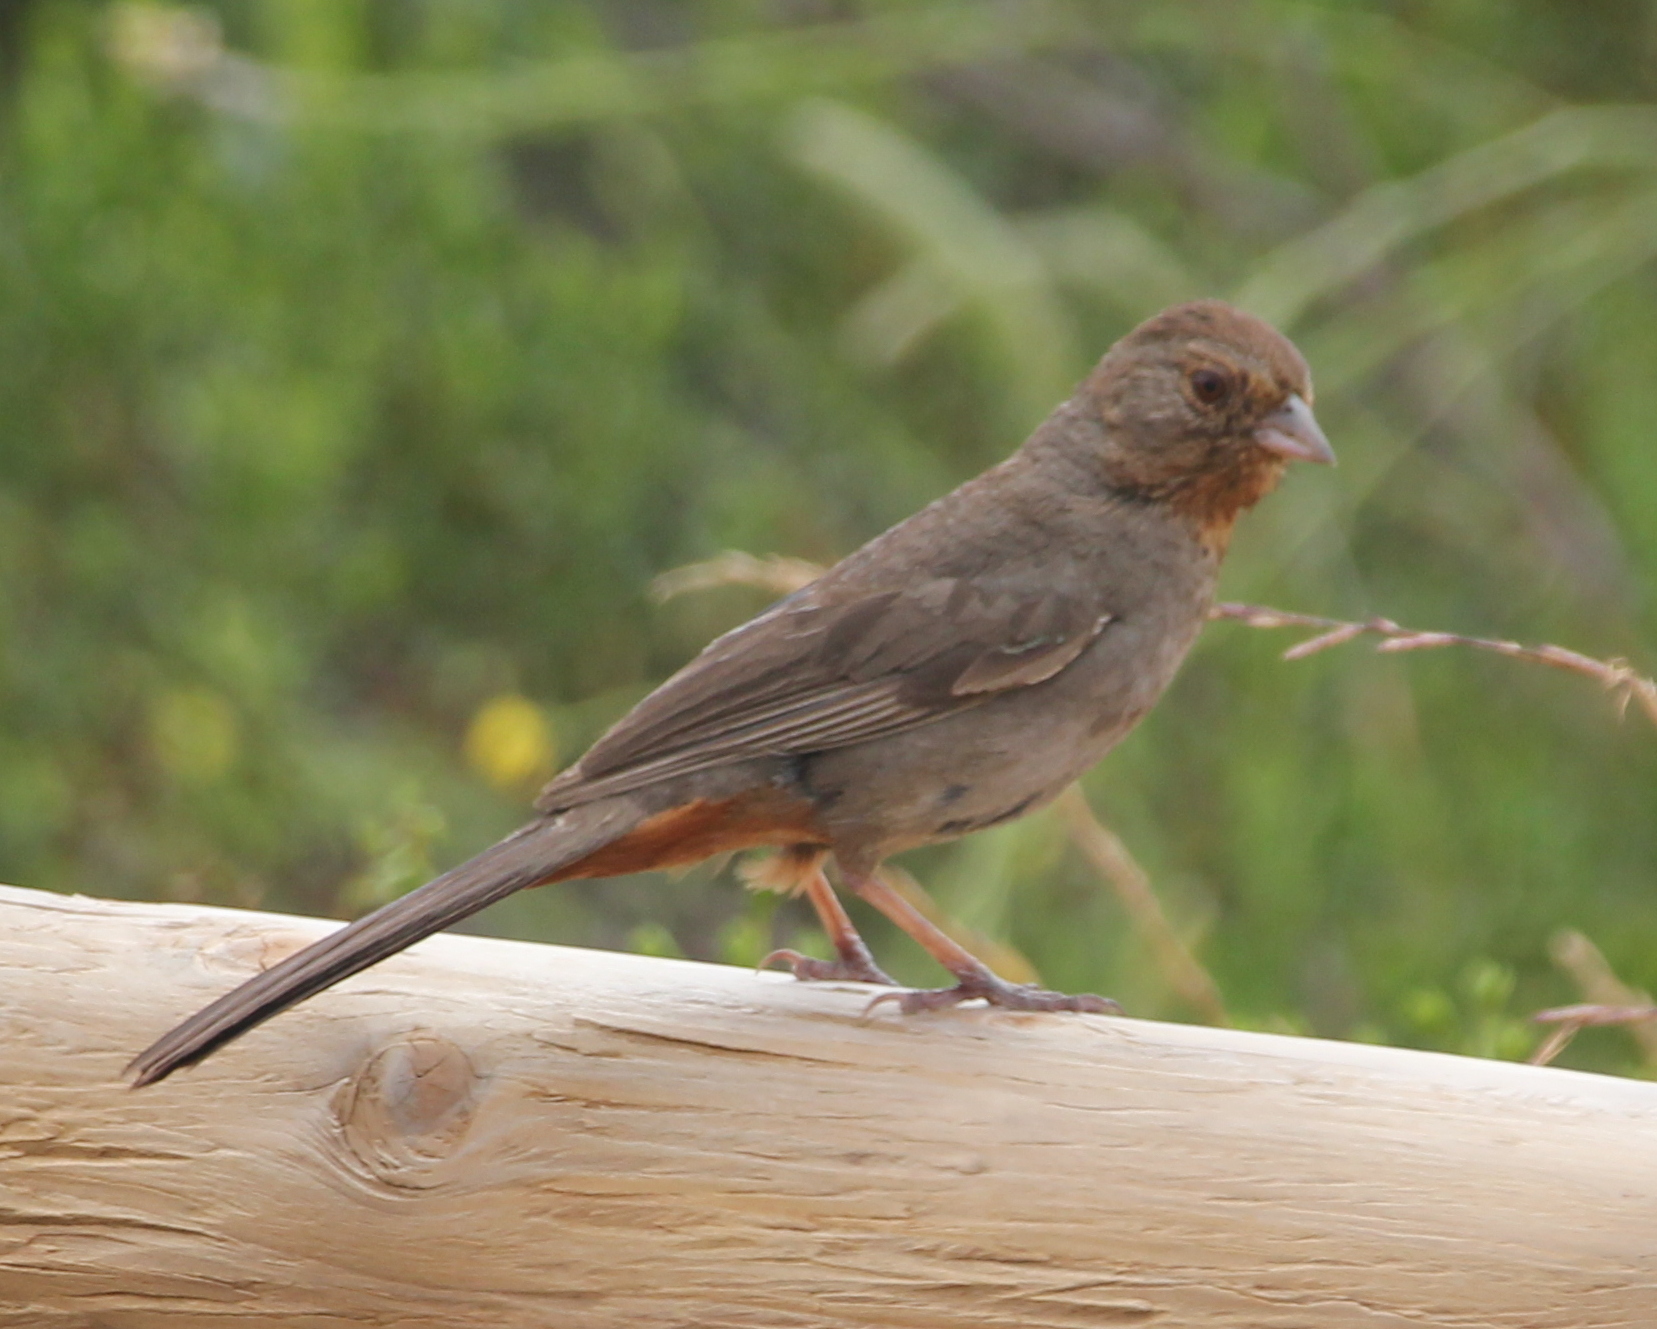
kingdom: Animalia
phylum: Chordata
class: Aves
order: Passeriformes
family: Passerellidae
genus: Melozone
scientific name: Melozone crissalis
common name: California towhee
